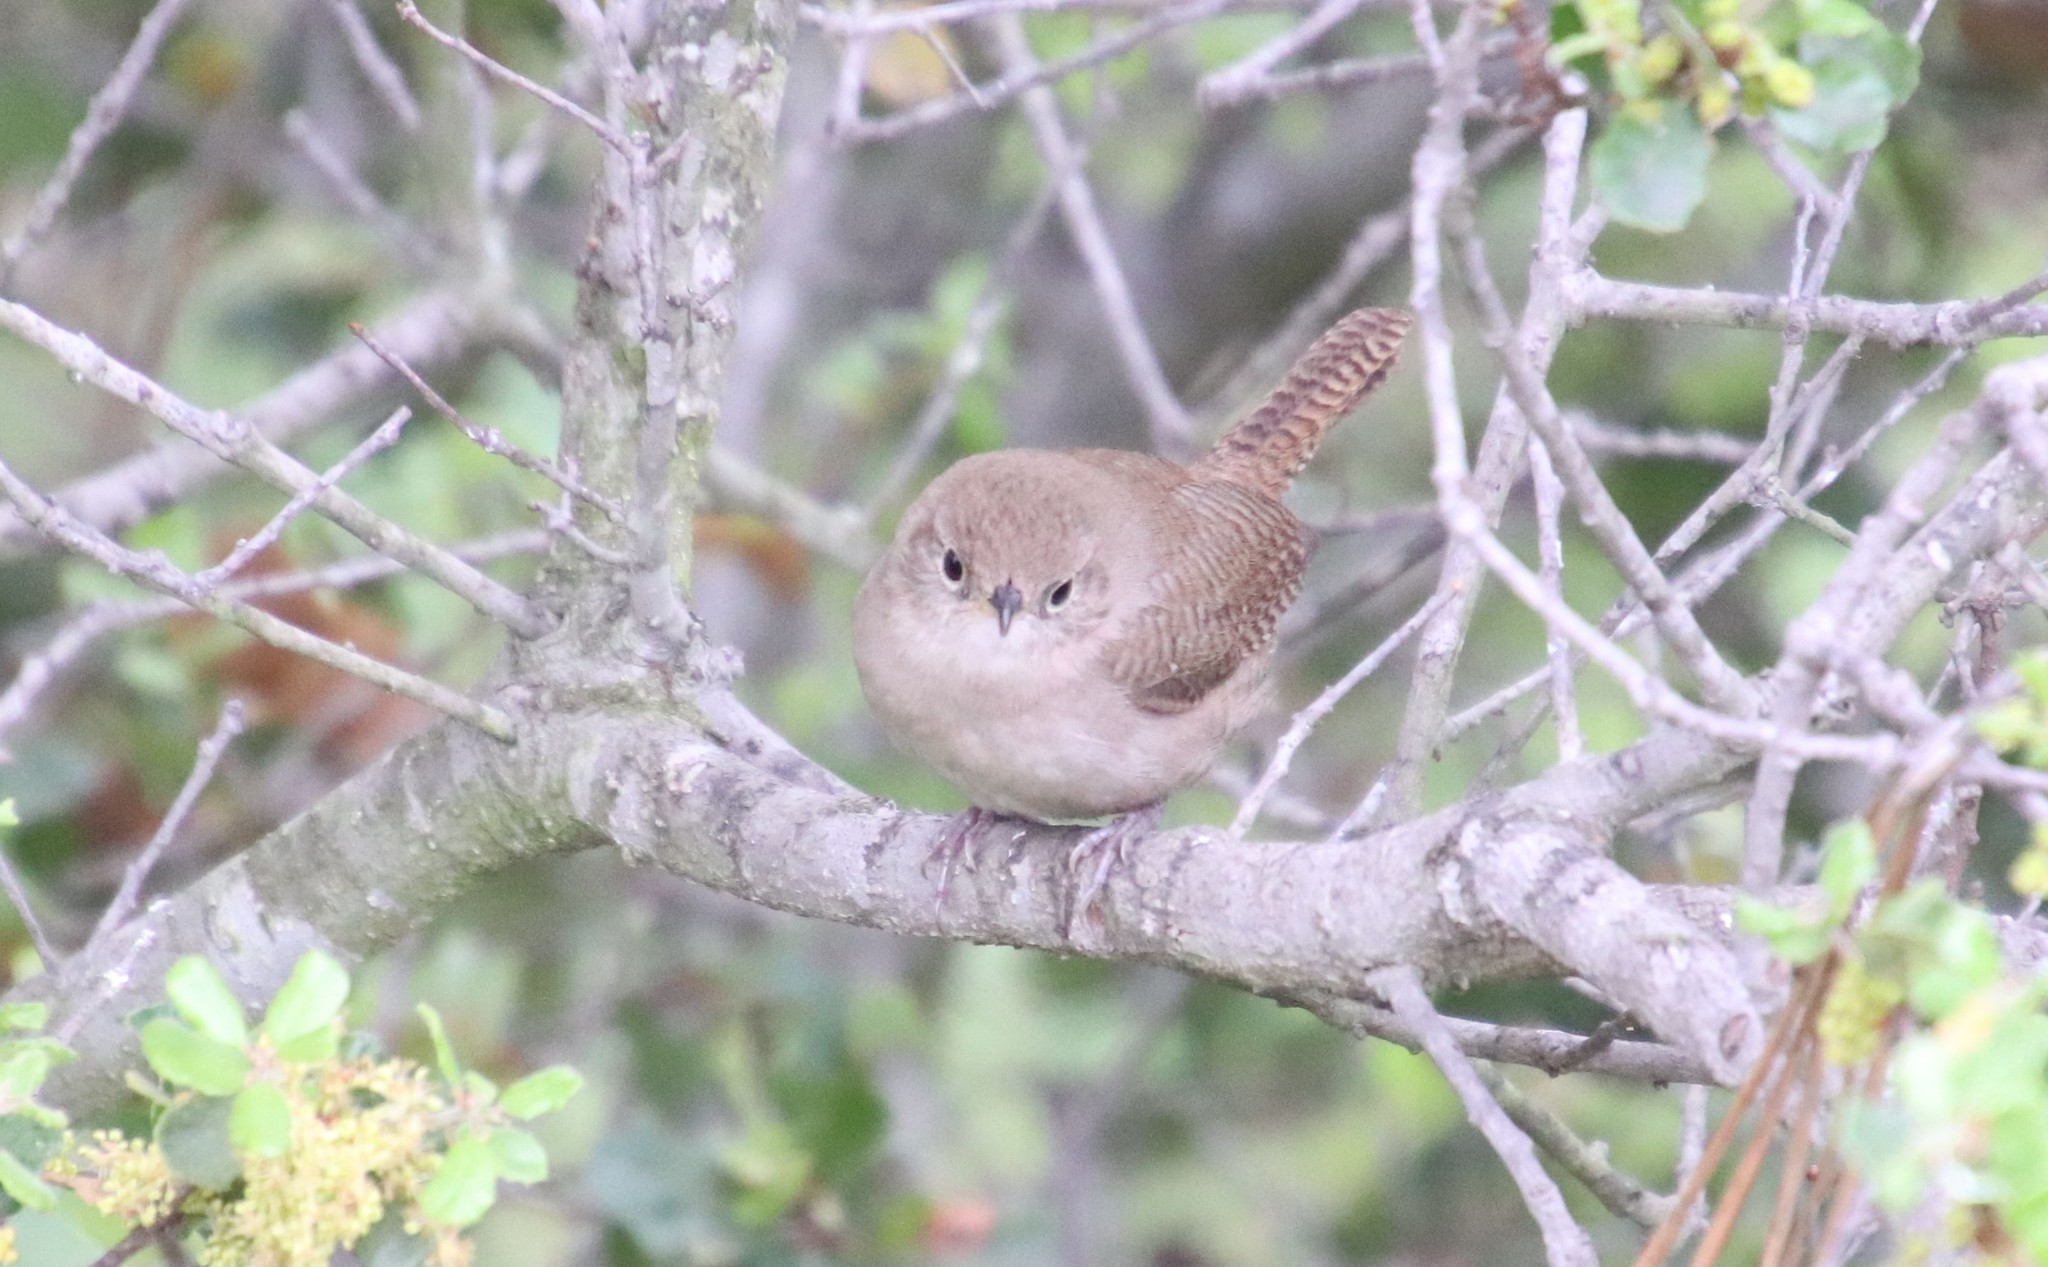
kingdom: Animalia
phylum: Chordata
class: Aves
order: Passeriformes
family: Troglodytidae
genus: Troglodytes
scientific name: Troglodytes aedon
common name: House wren
